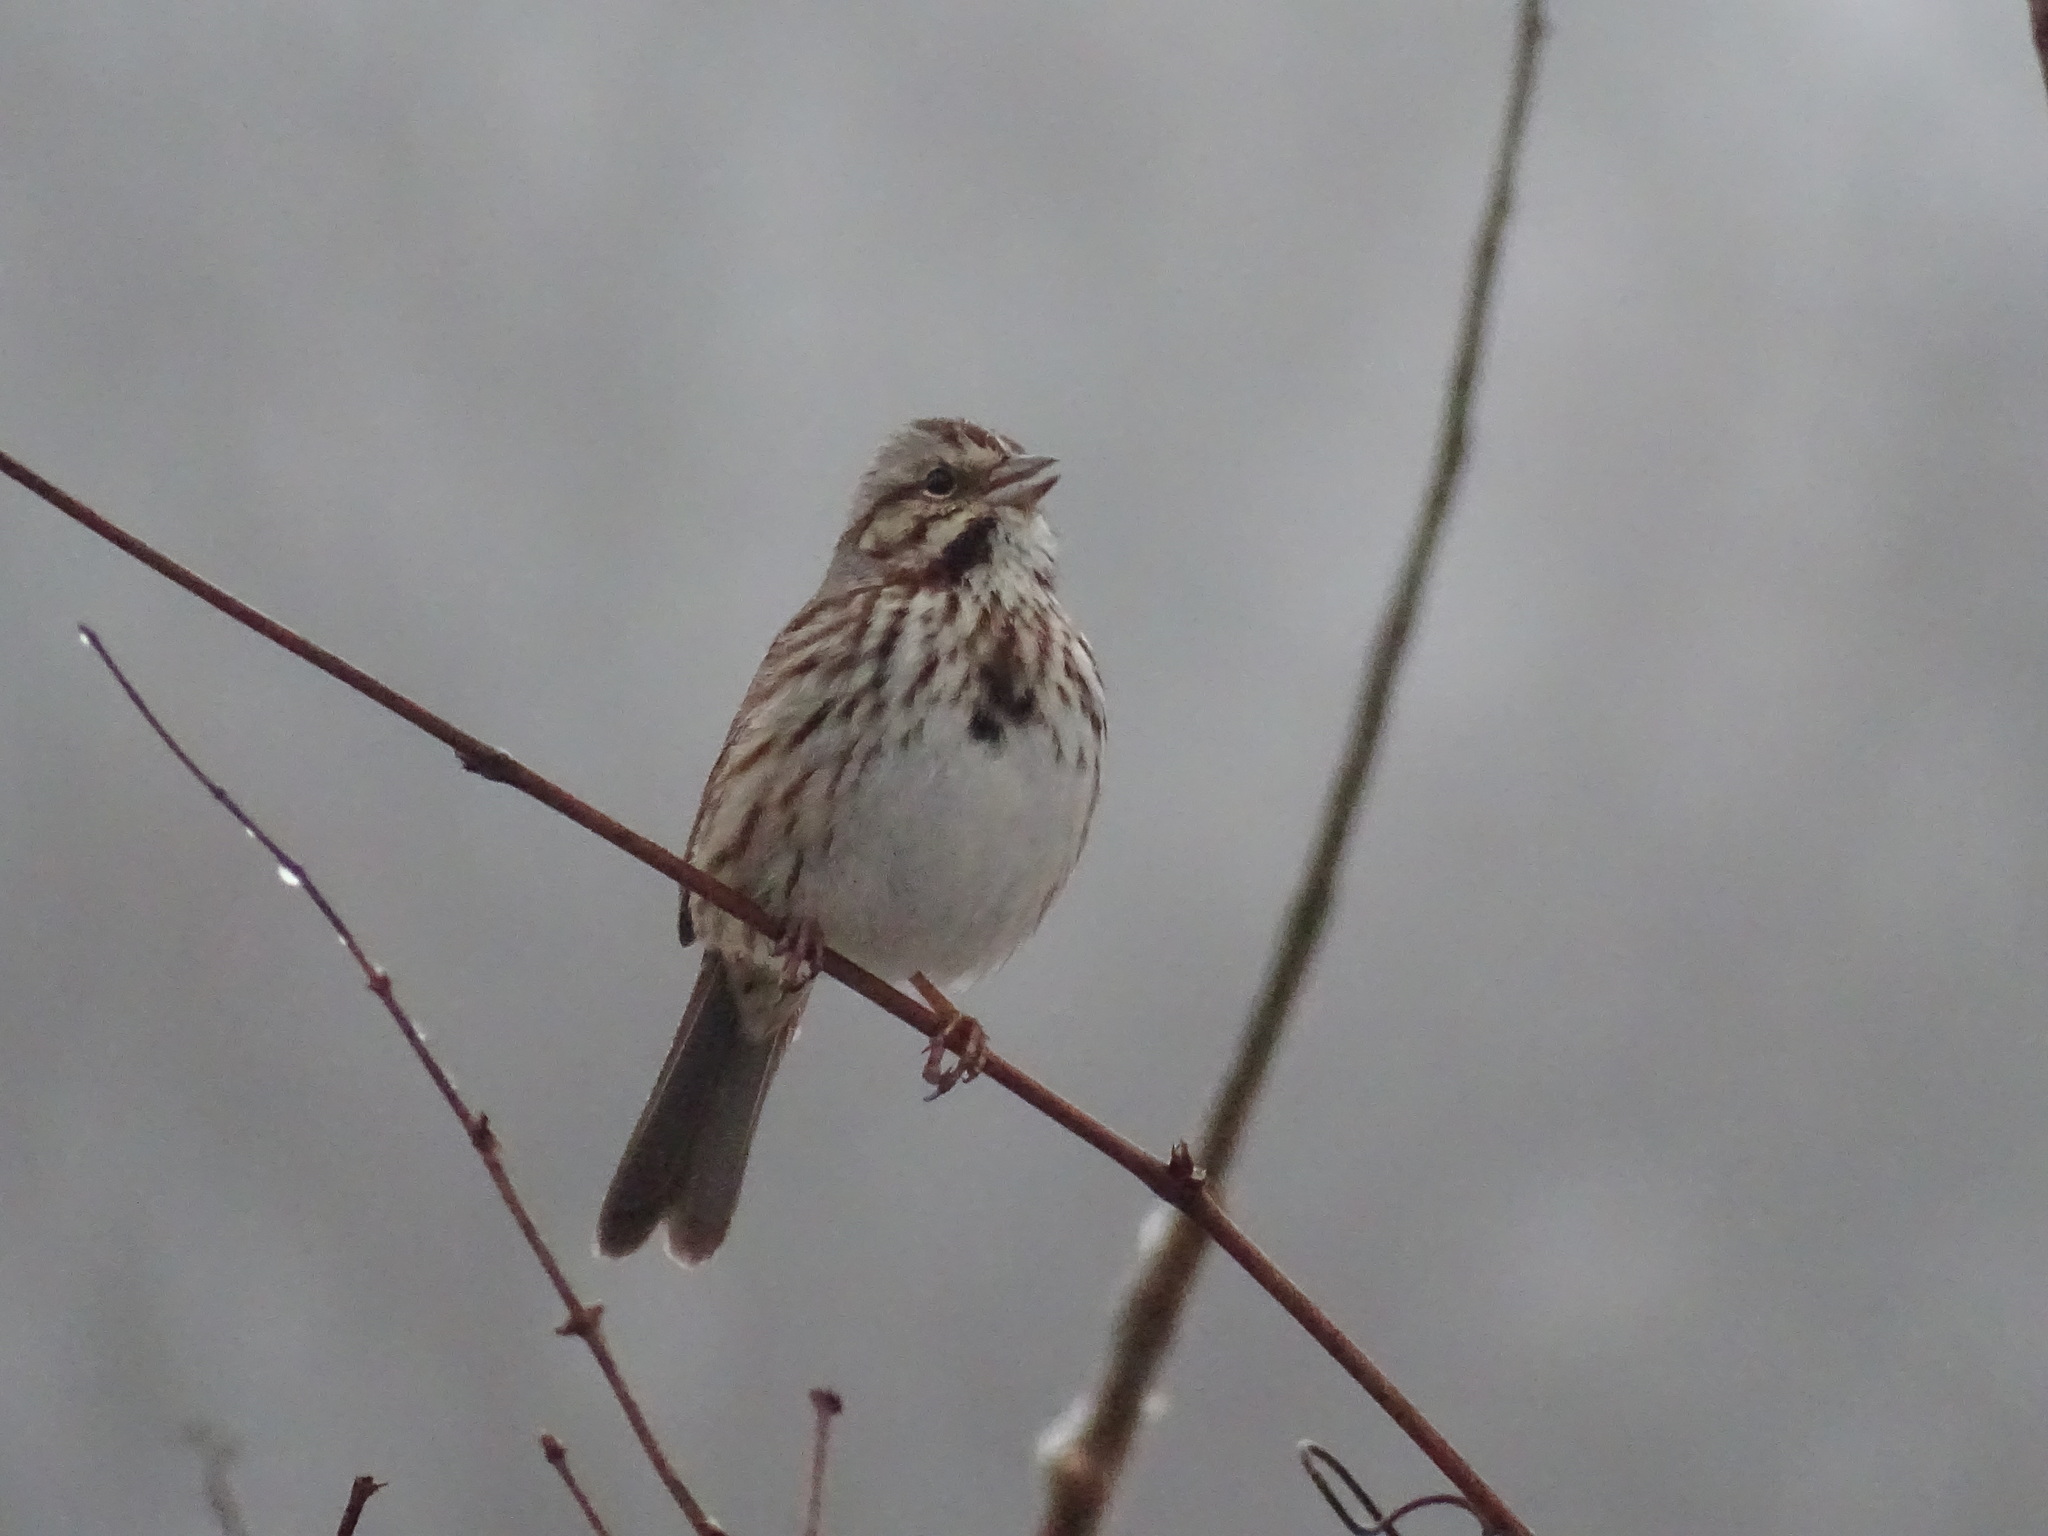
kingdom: Animalia
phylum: Chordata
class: Aves
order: Passeriformes
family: Passerellidae
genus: Melospiza
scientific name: Melospiza melodia
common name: Song sparrow
